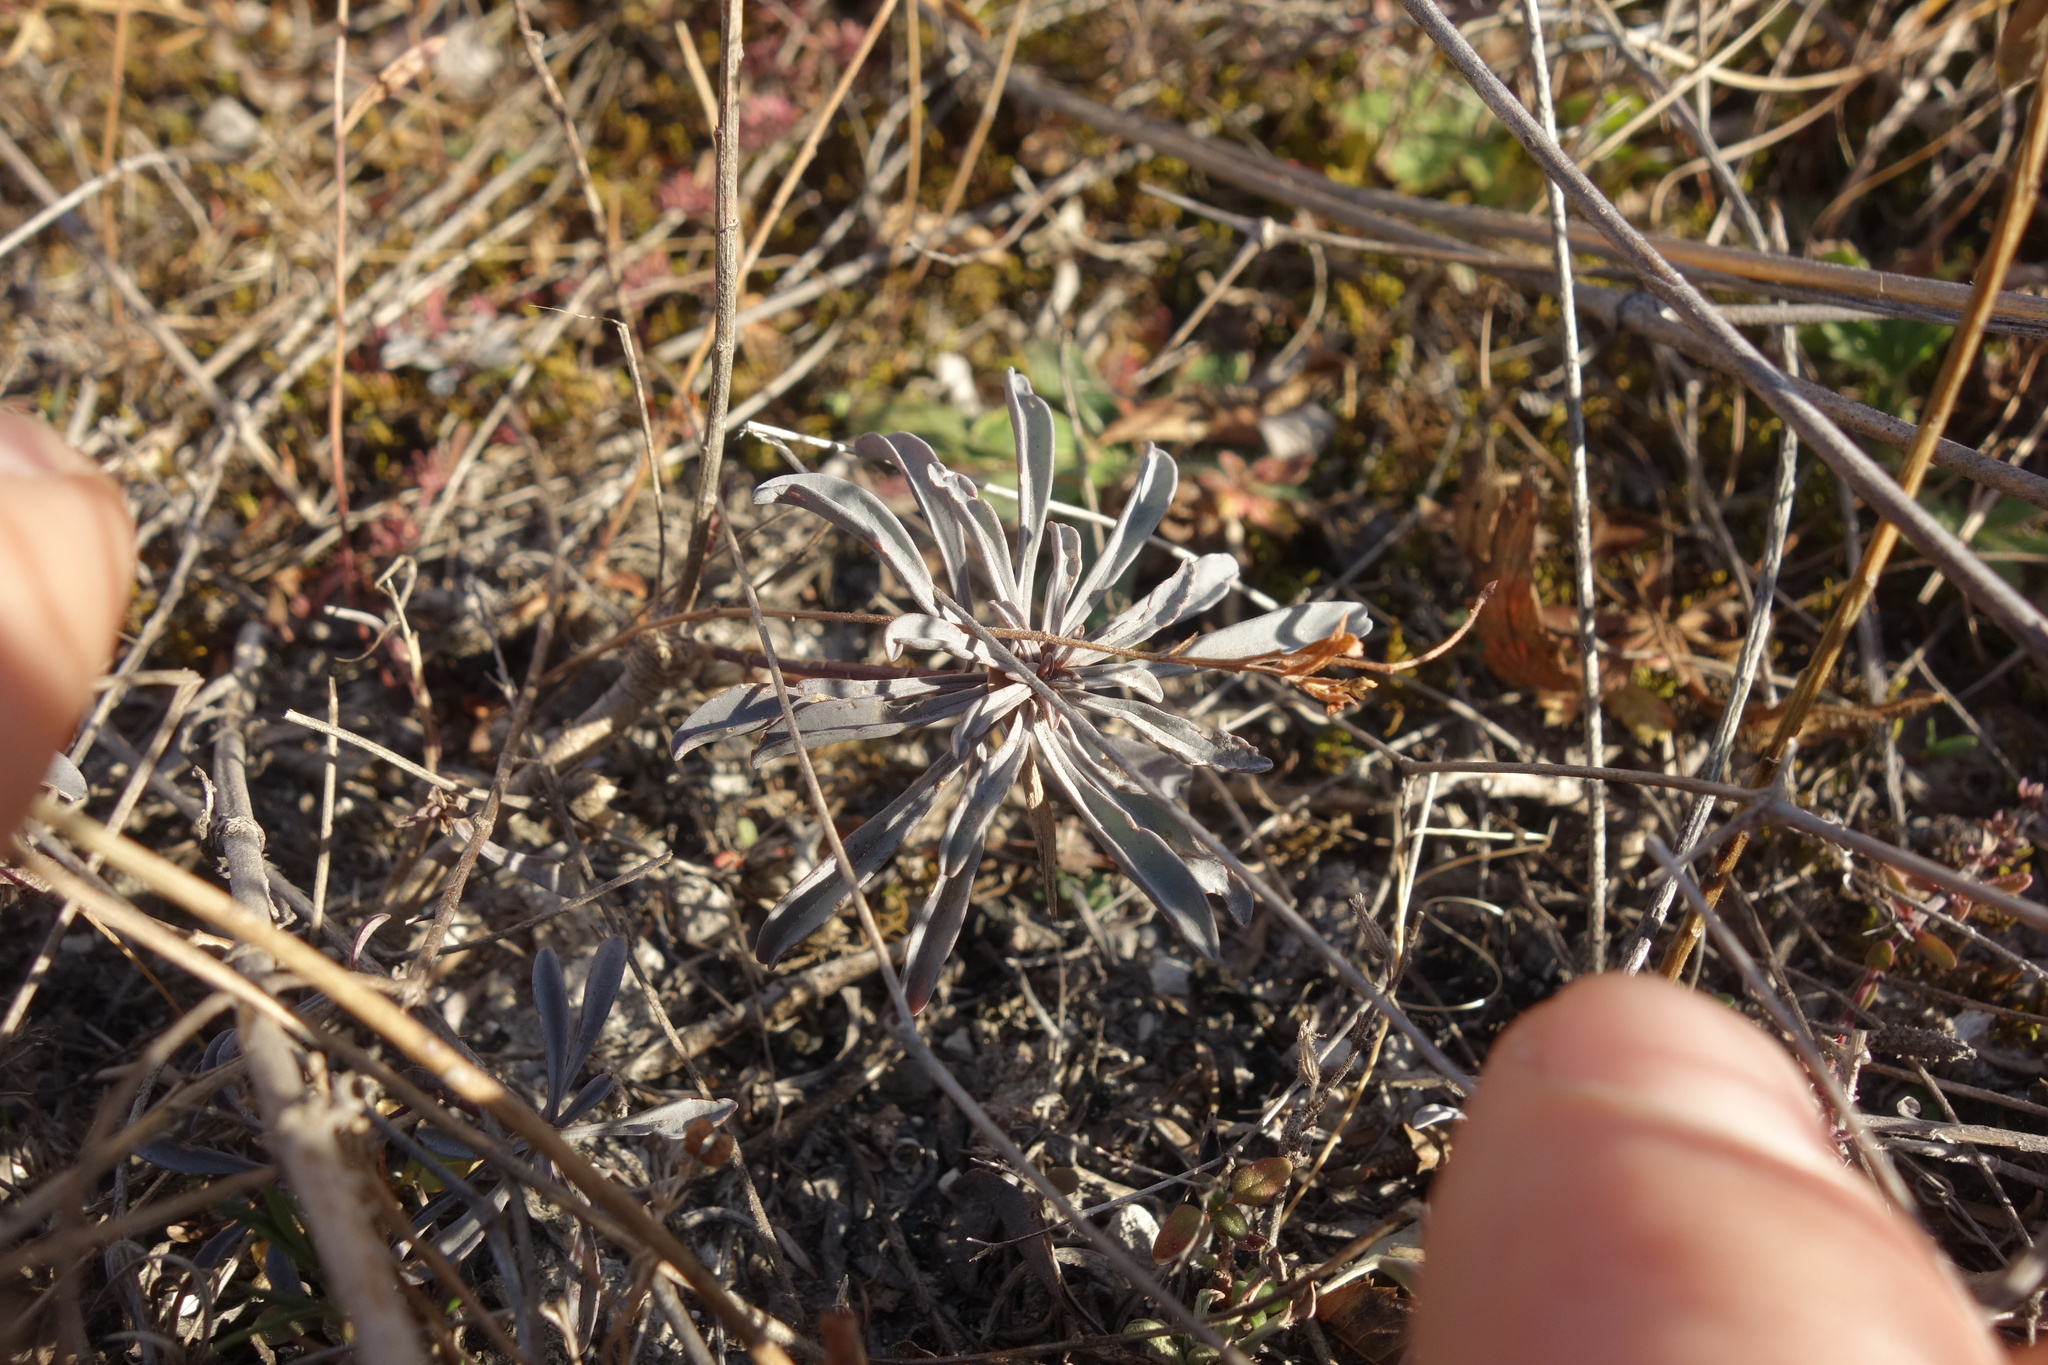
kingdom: Plantae
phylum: Tracheophyta
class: Magnoliopsida
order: Malpighiales
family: Linaceae
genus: Linum
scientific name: Linum ucranicum
